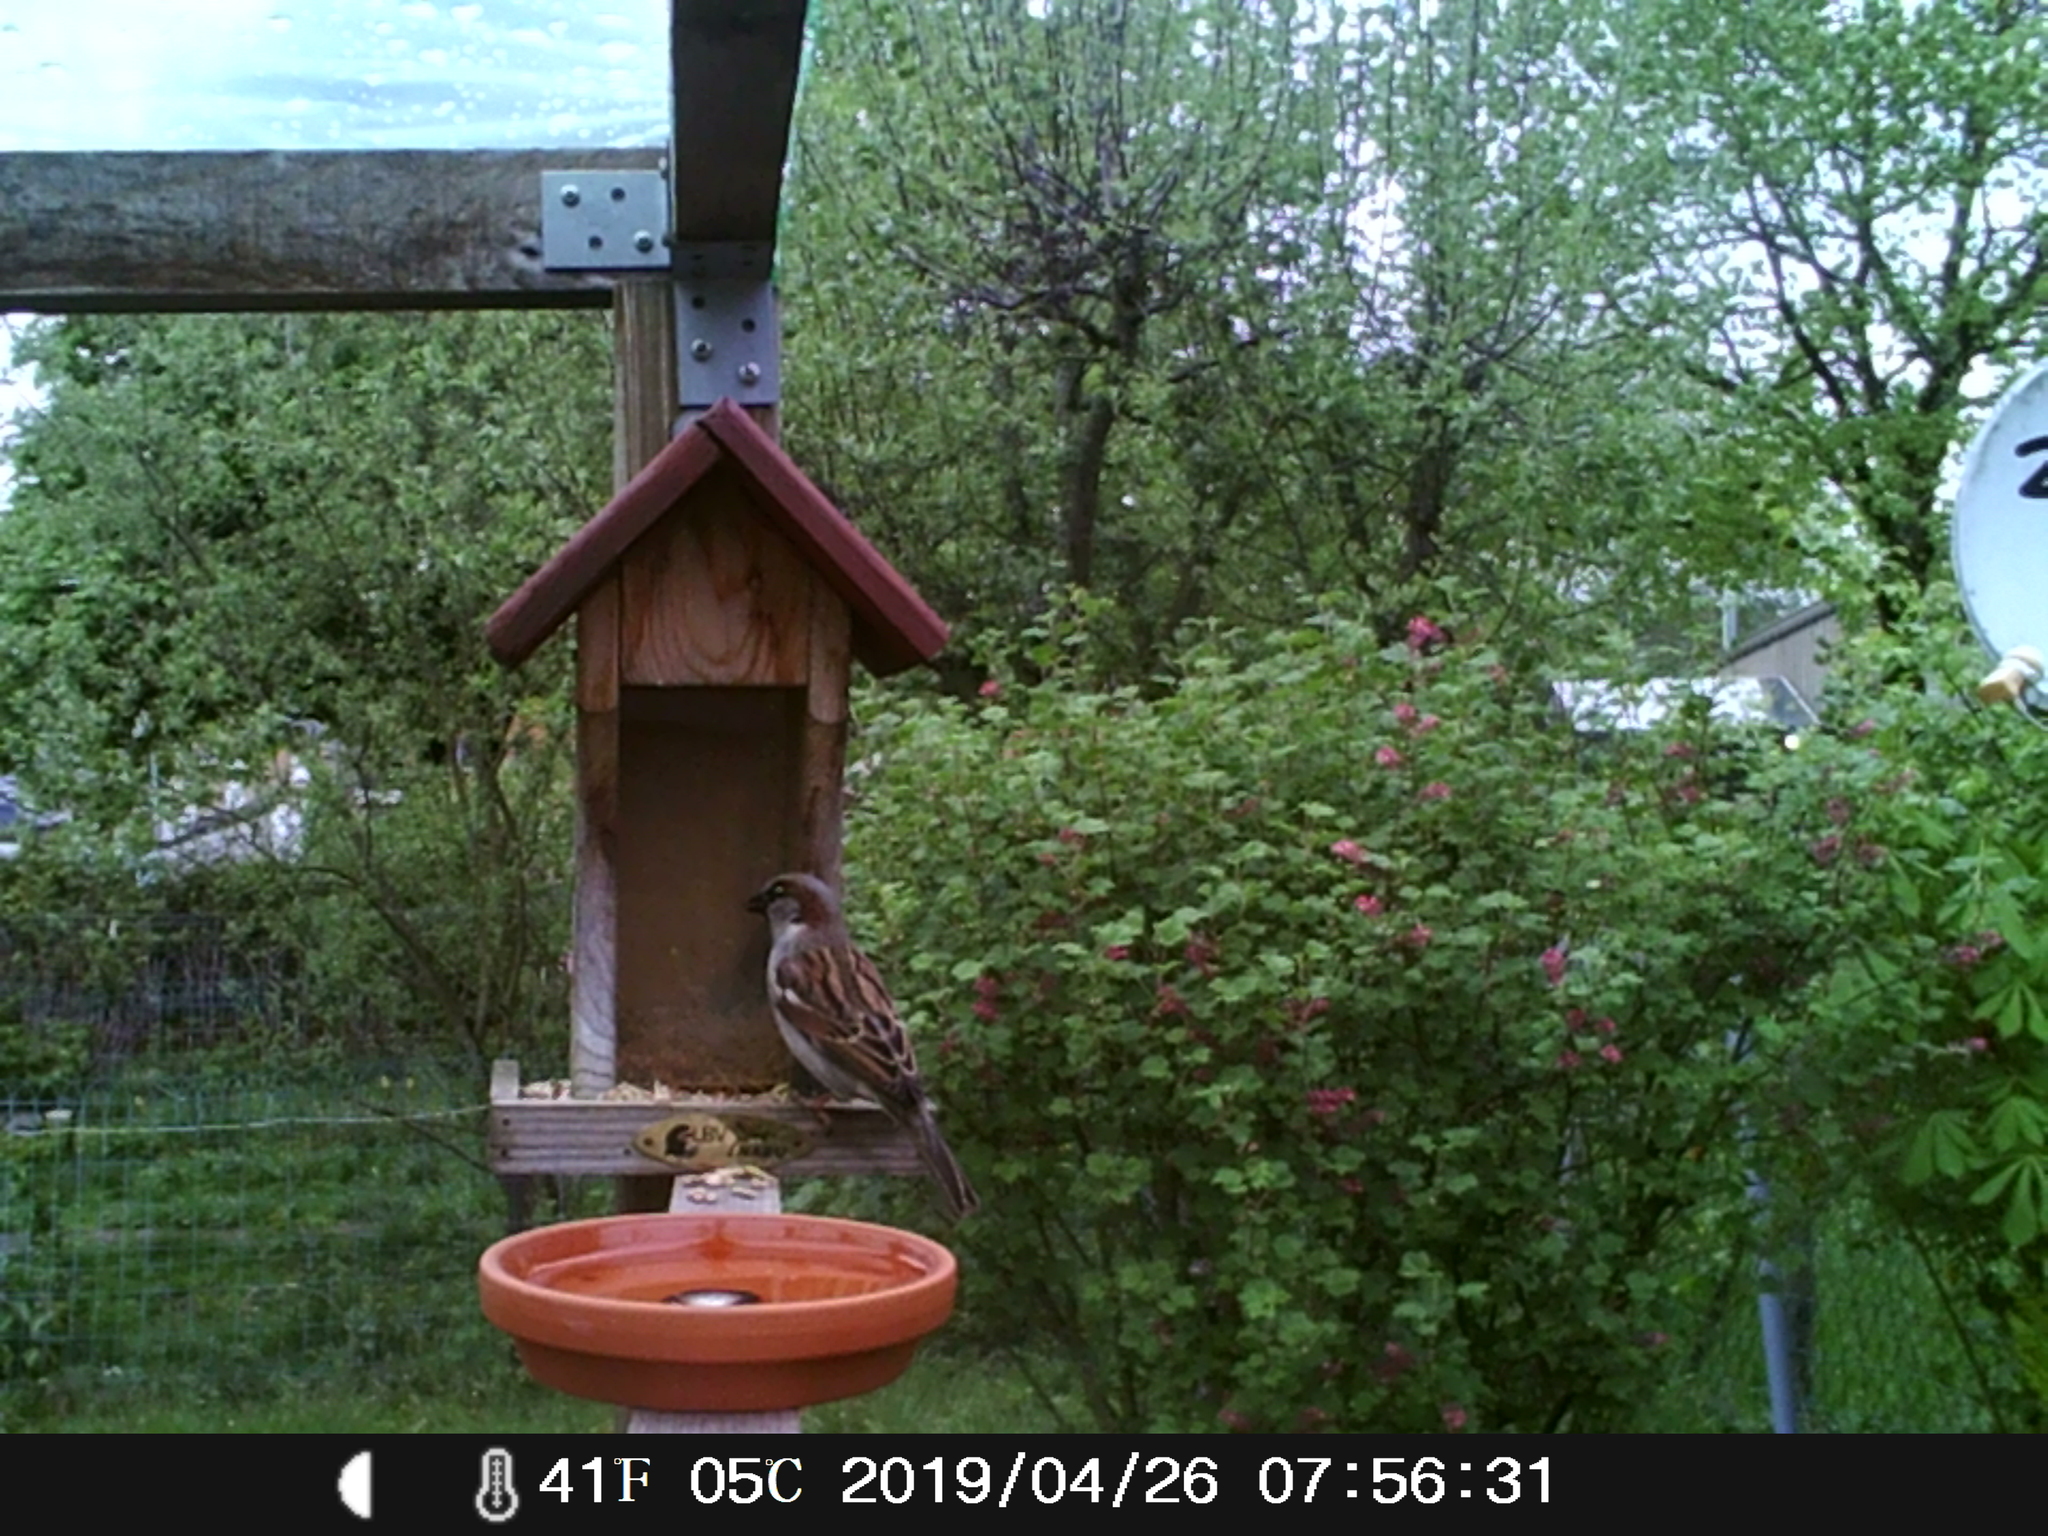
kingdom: Animalia
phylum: Chordata
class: Aves
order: Passeriformes
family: Passeridae
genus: Passer
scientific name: Passer domesticus
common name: House sparrow
